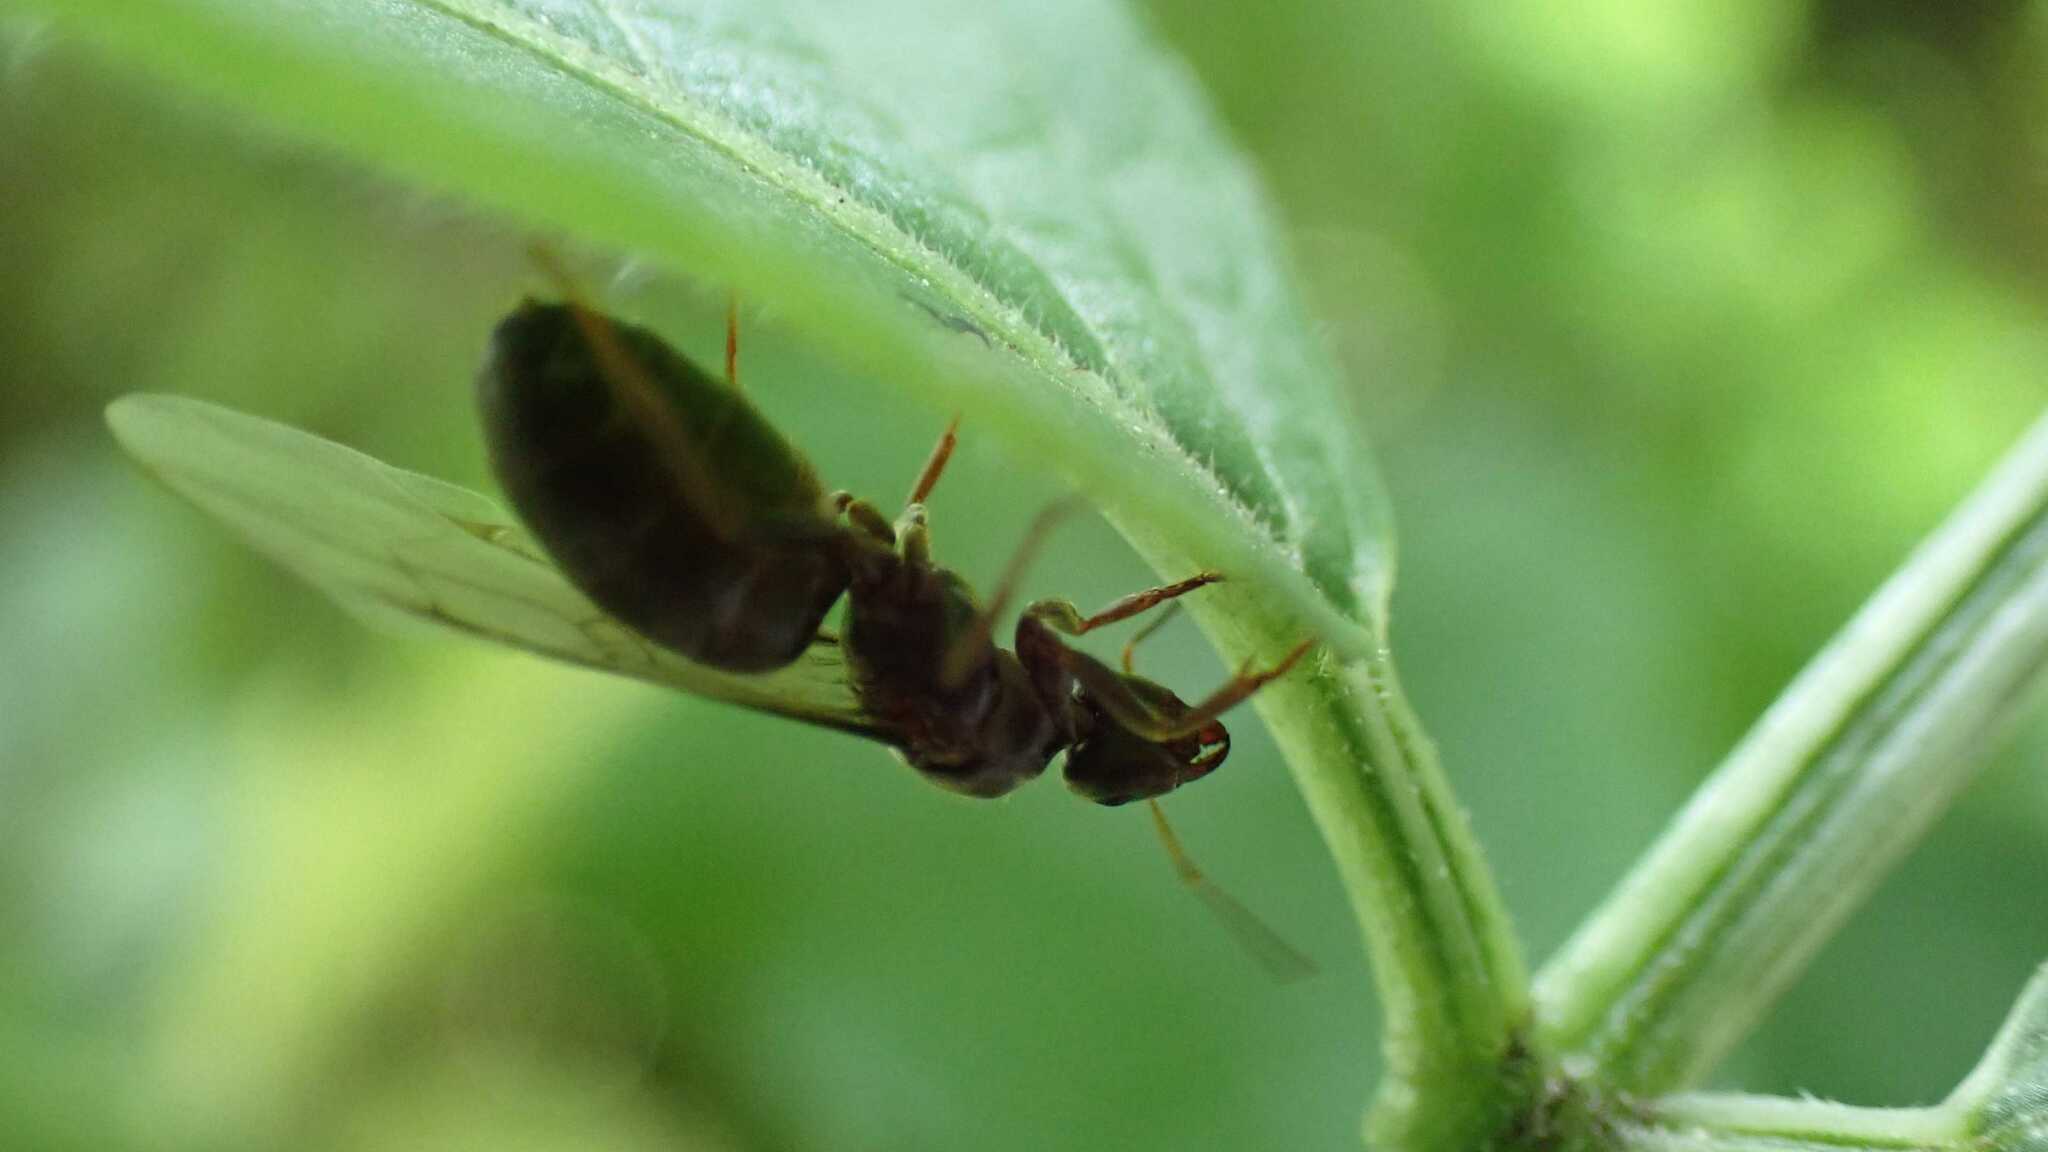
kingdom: Animalia
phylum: Arthropoda
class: Insecta
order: Hymenoptera
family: Formicidae
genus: Lasius
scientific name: Lasius
